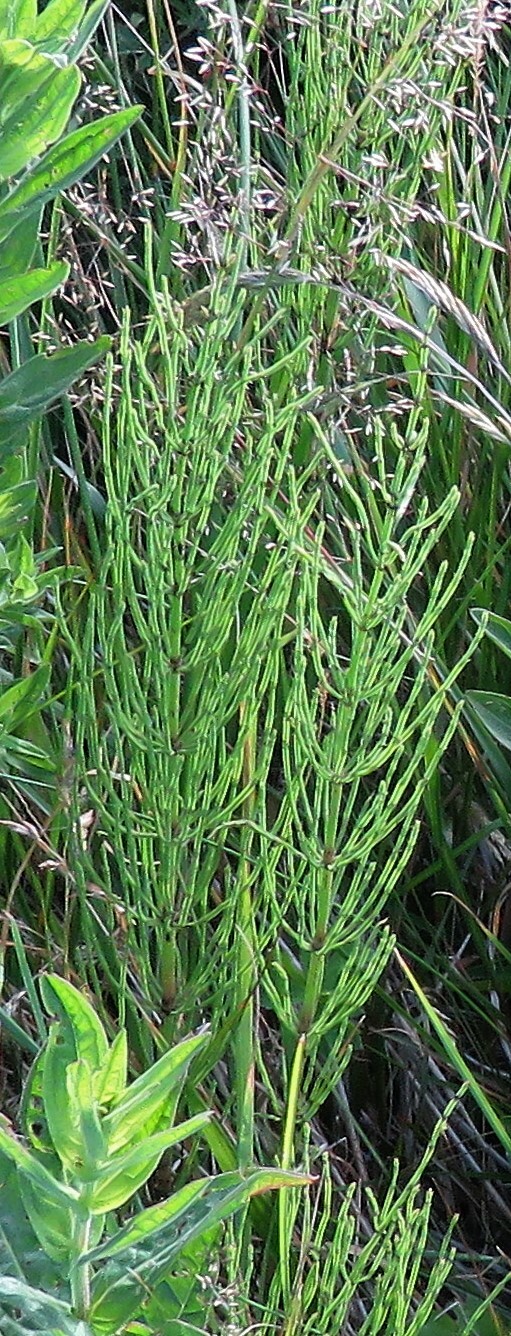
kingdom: Plantae
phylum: Tracheophyta
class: Polypodiopsida
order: Equisetales
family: Equisetaceae
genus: Equisetum
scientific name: Equisetum arvense
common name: Field horsetail
